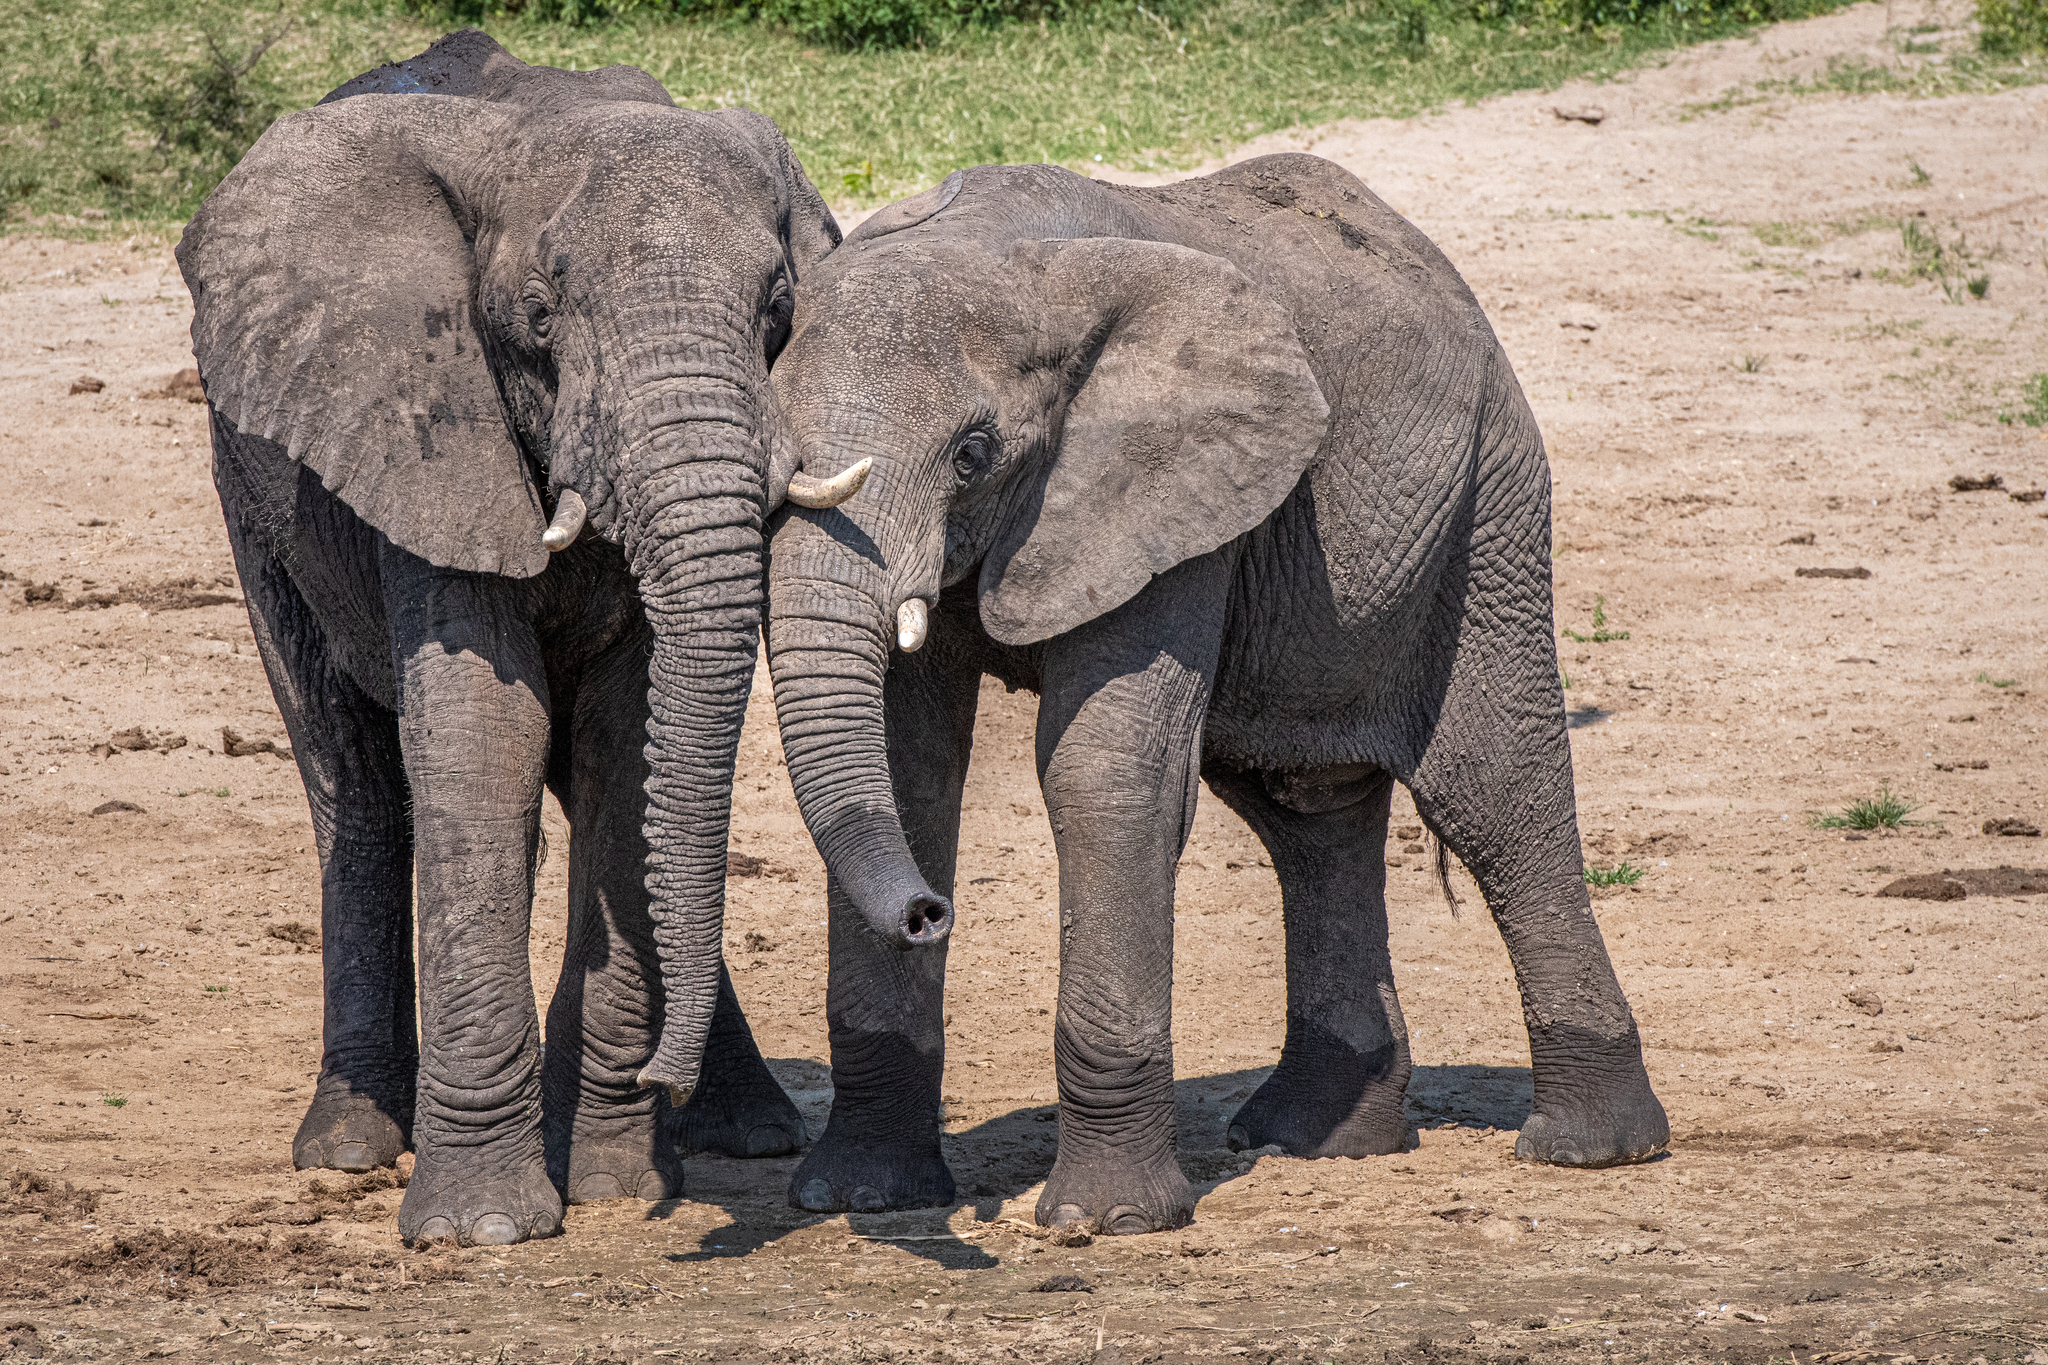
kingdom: Animalia
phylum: Chordata
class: Mammalia
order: Proboscidea
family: Elephantidae
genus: Loxodonta
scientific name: Loxodonta africana
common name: African elephant
